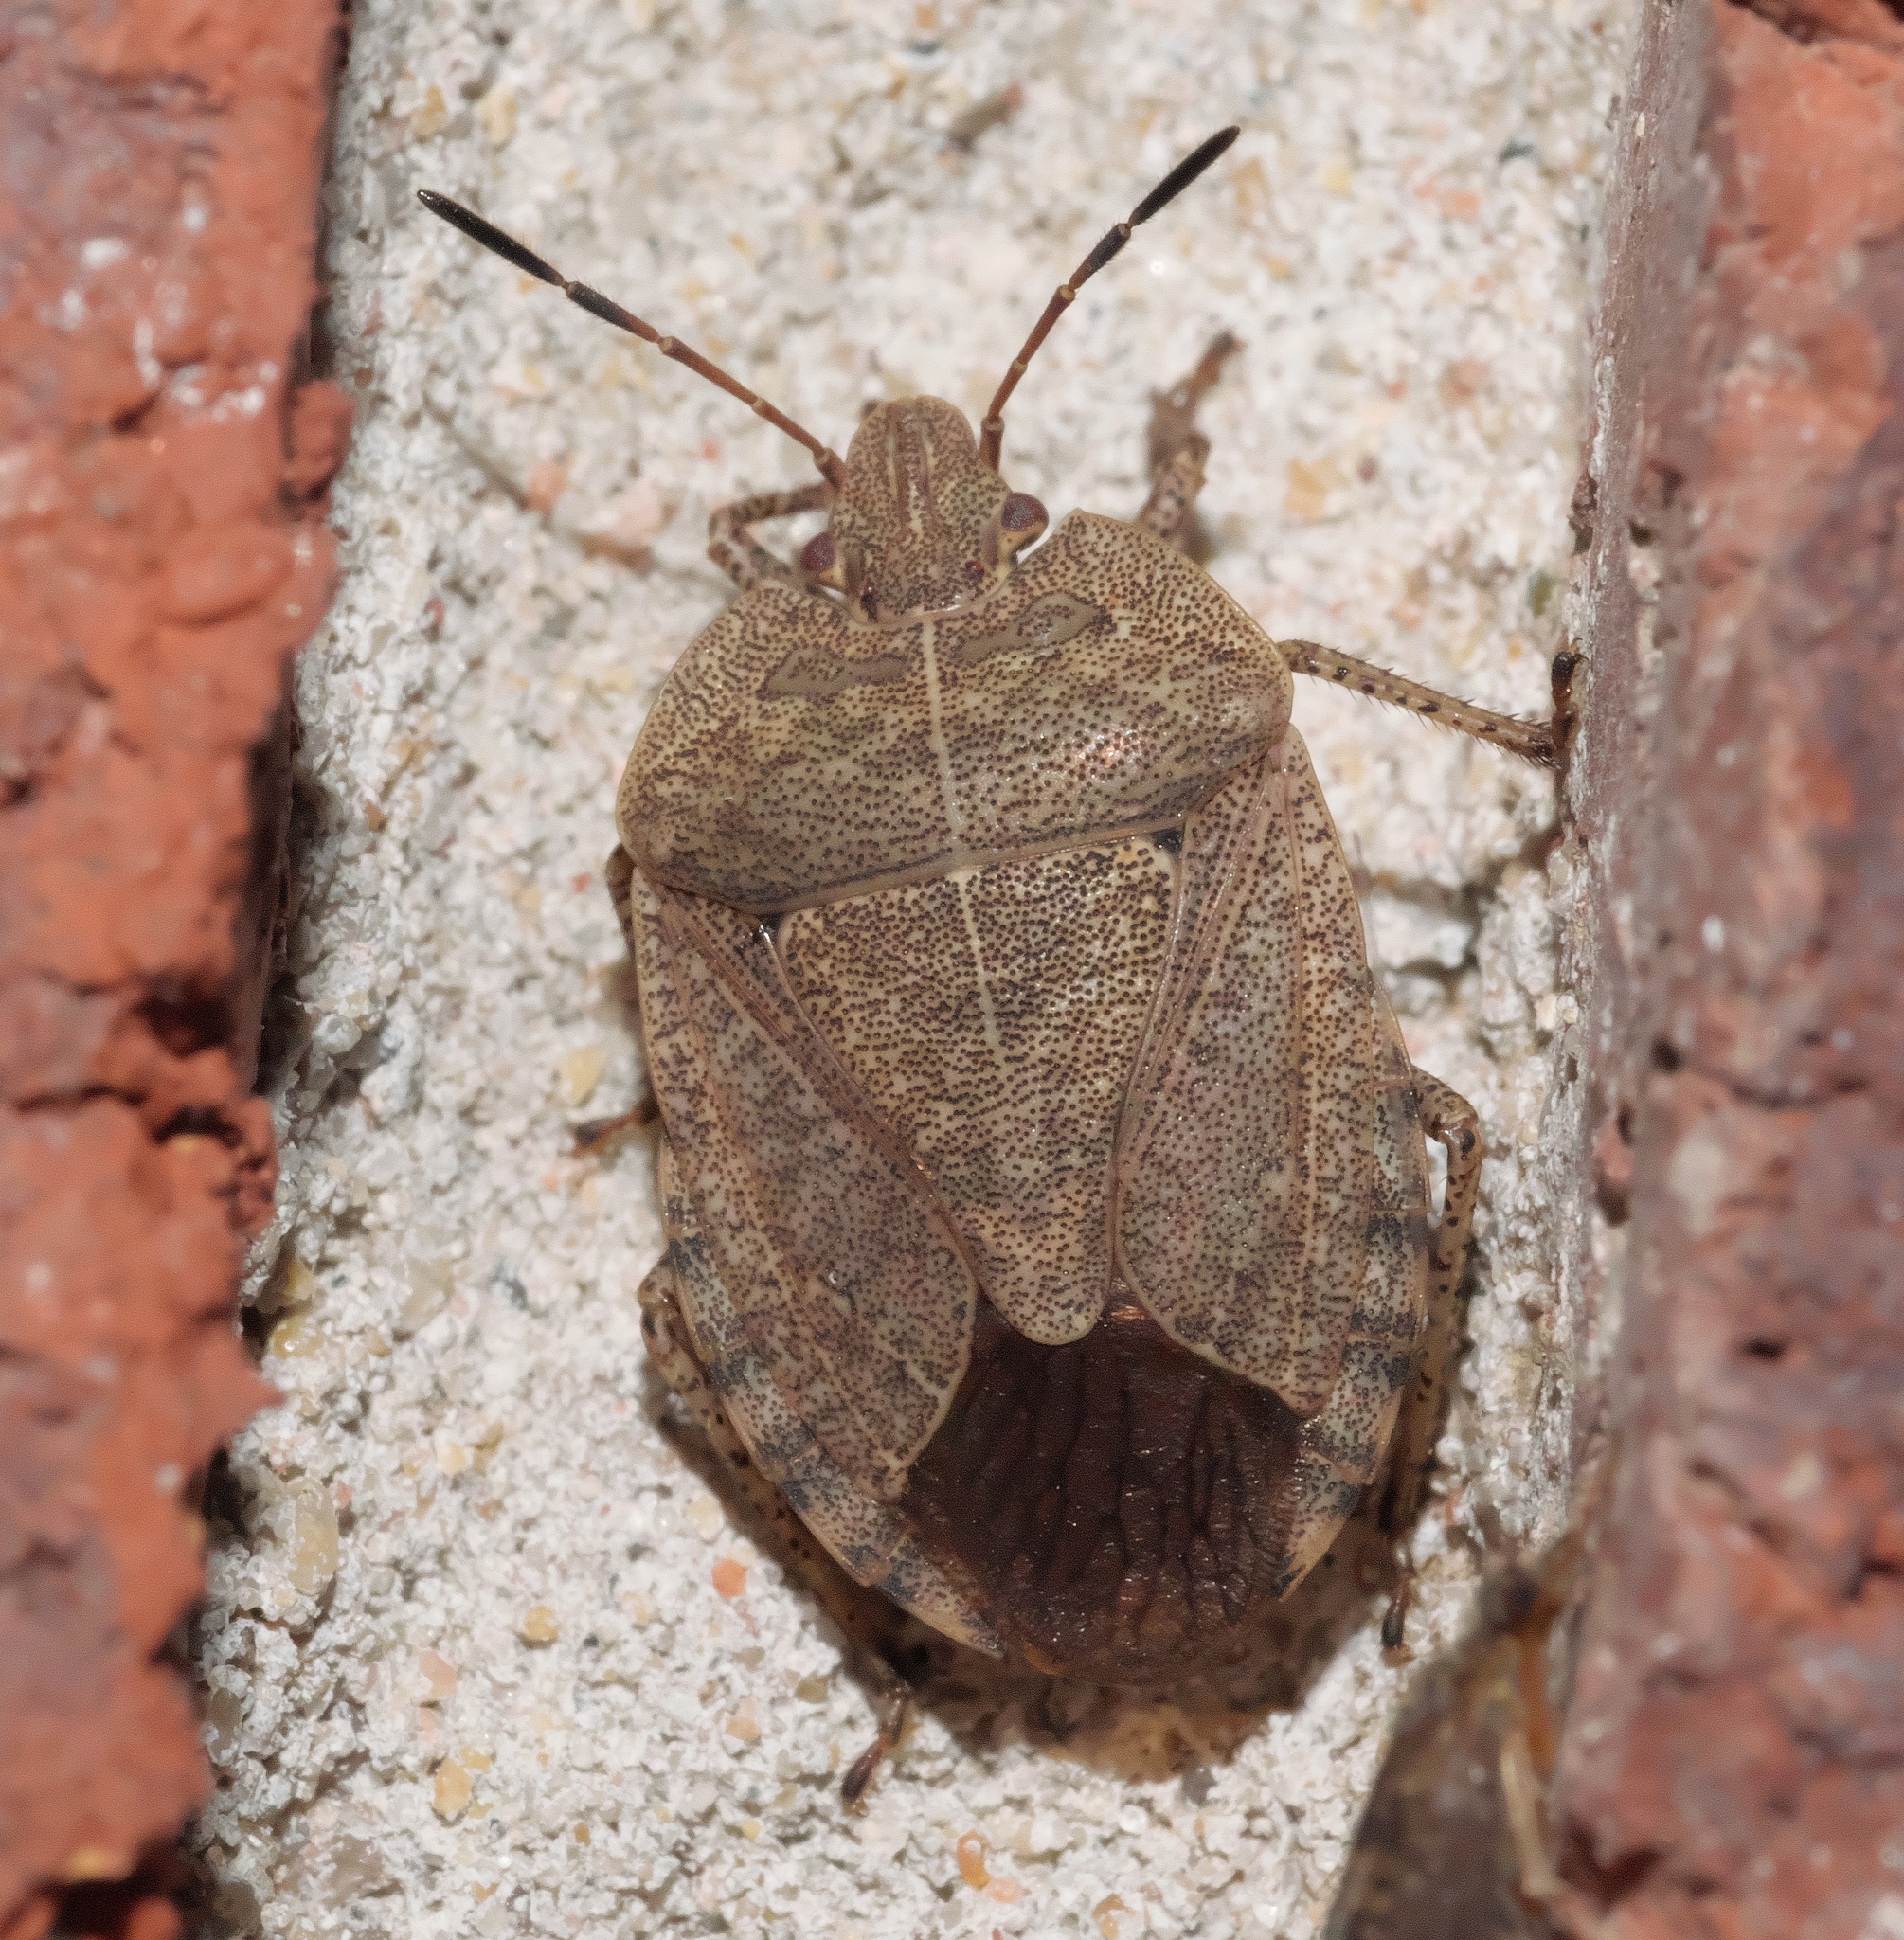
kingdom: Animalia
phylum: Arthropoda
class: Insecta
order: Hemiptera
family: Pentatomidae
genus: Menecles
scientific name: Menecles insertus
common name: Elf shoe stink bug
